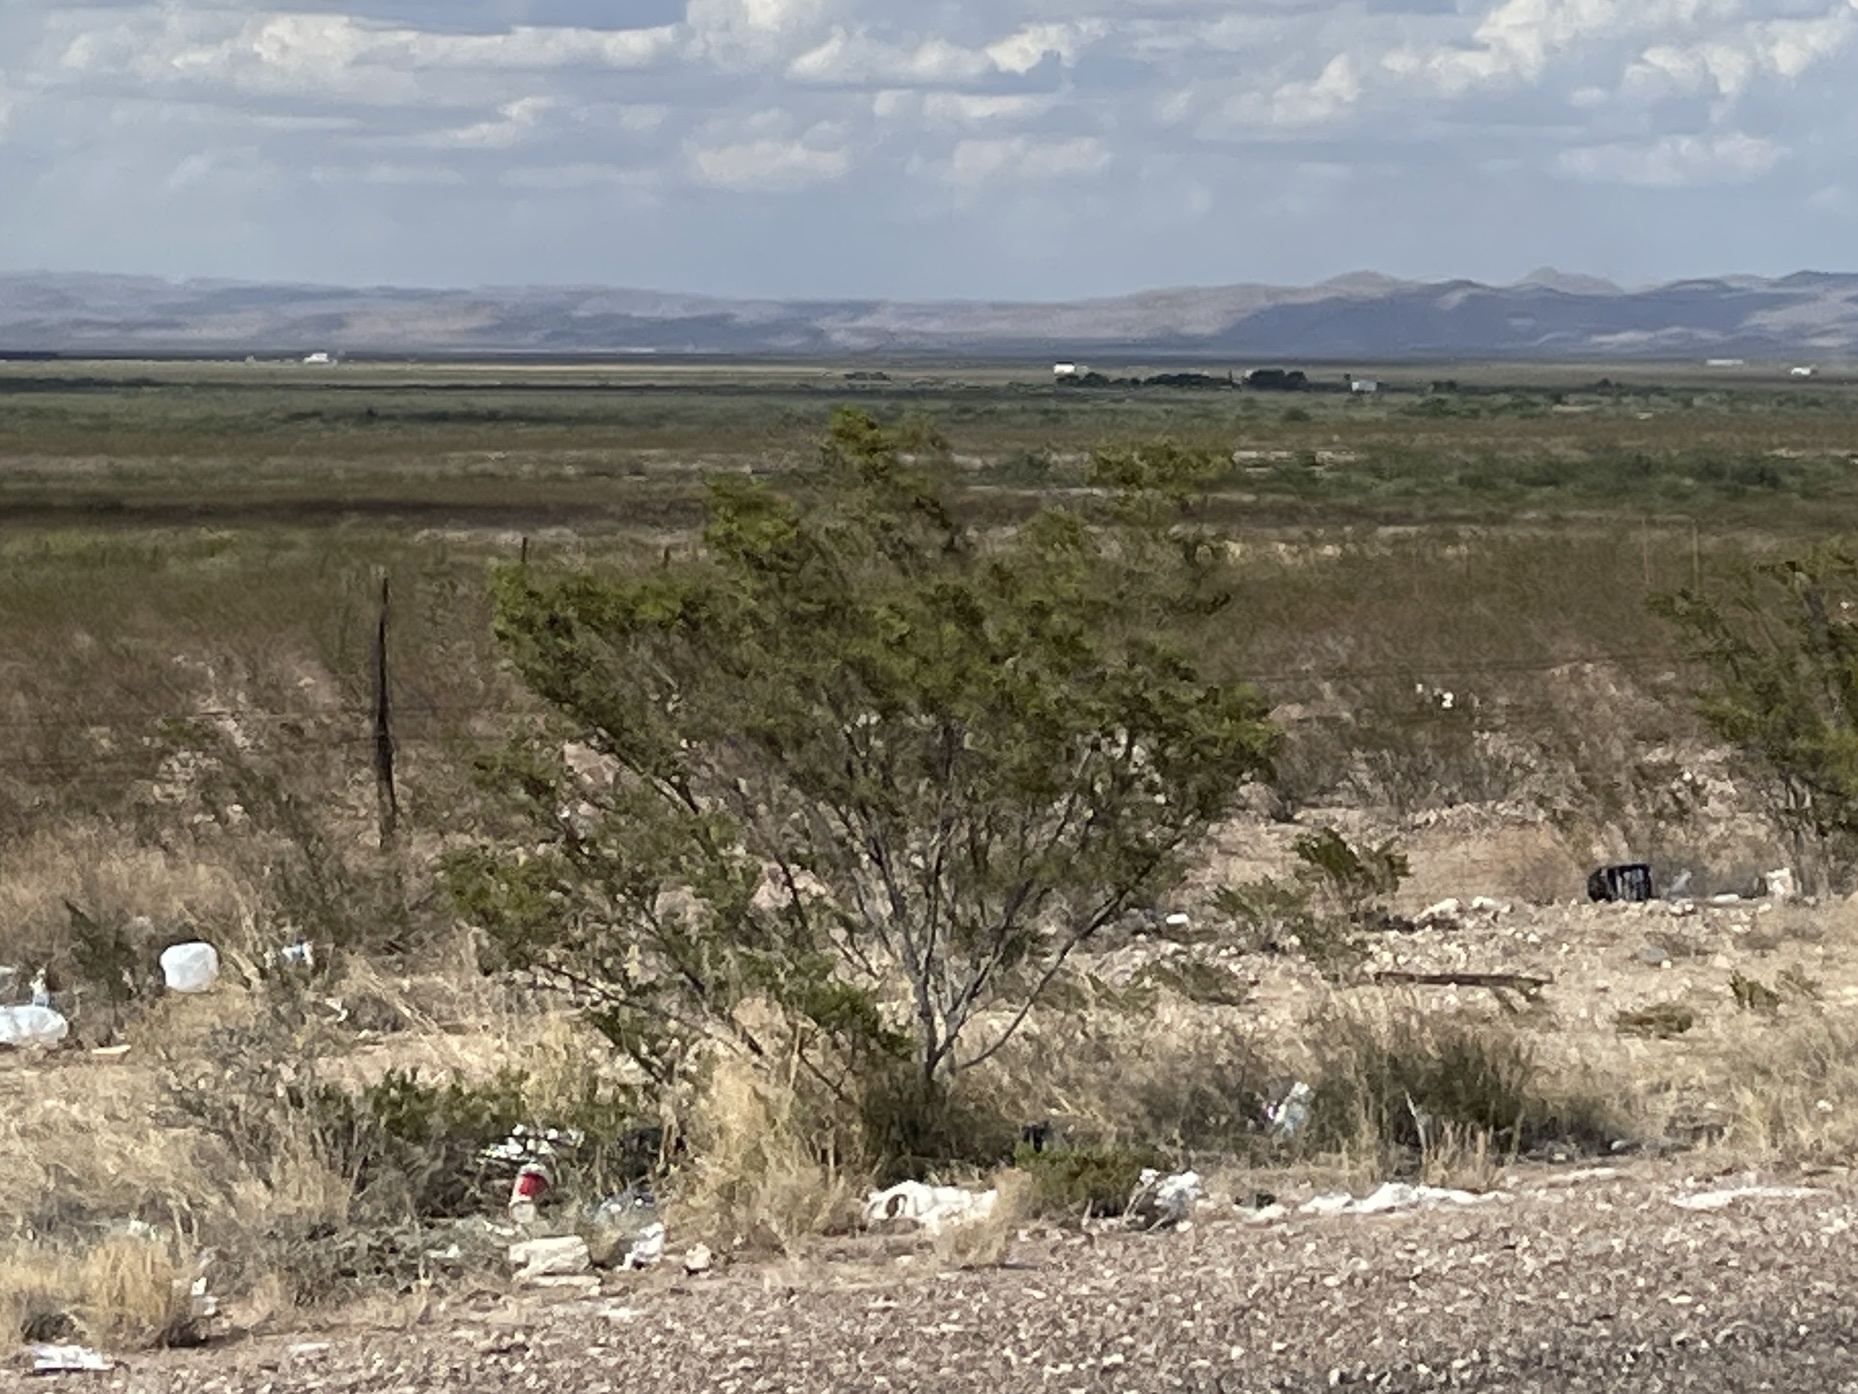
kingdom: Plantae
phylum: Tracheophyta
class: Magnoliopsida
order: Zygophyllales
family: Zygophyllaceae
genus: Larrea
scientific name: Larrea tridentata
